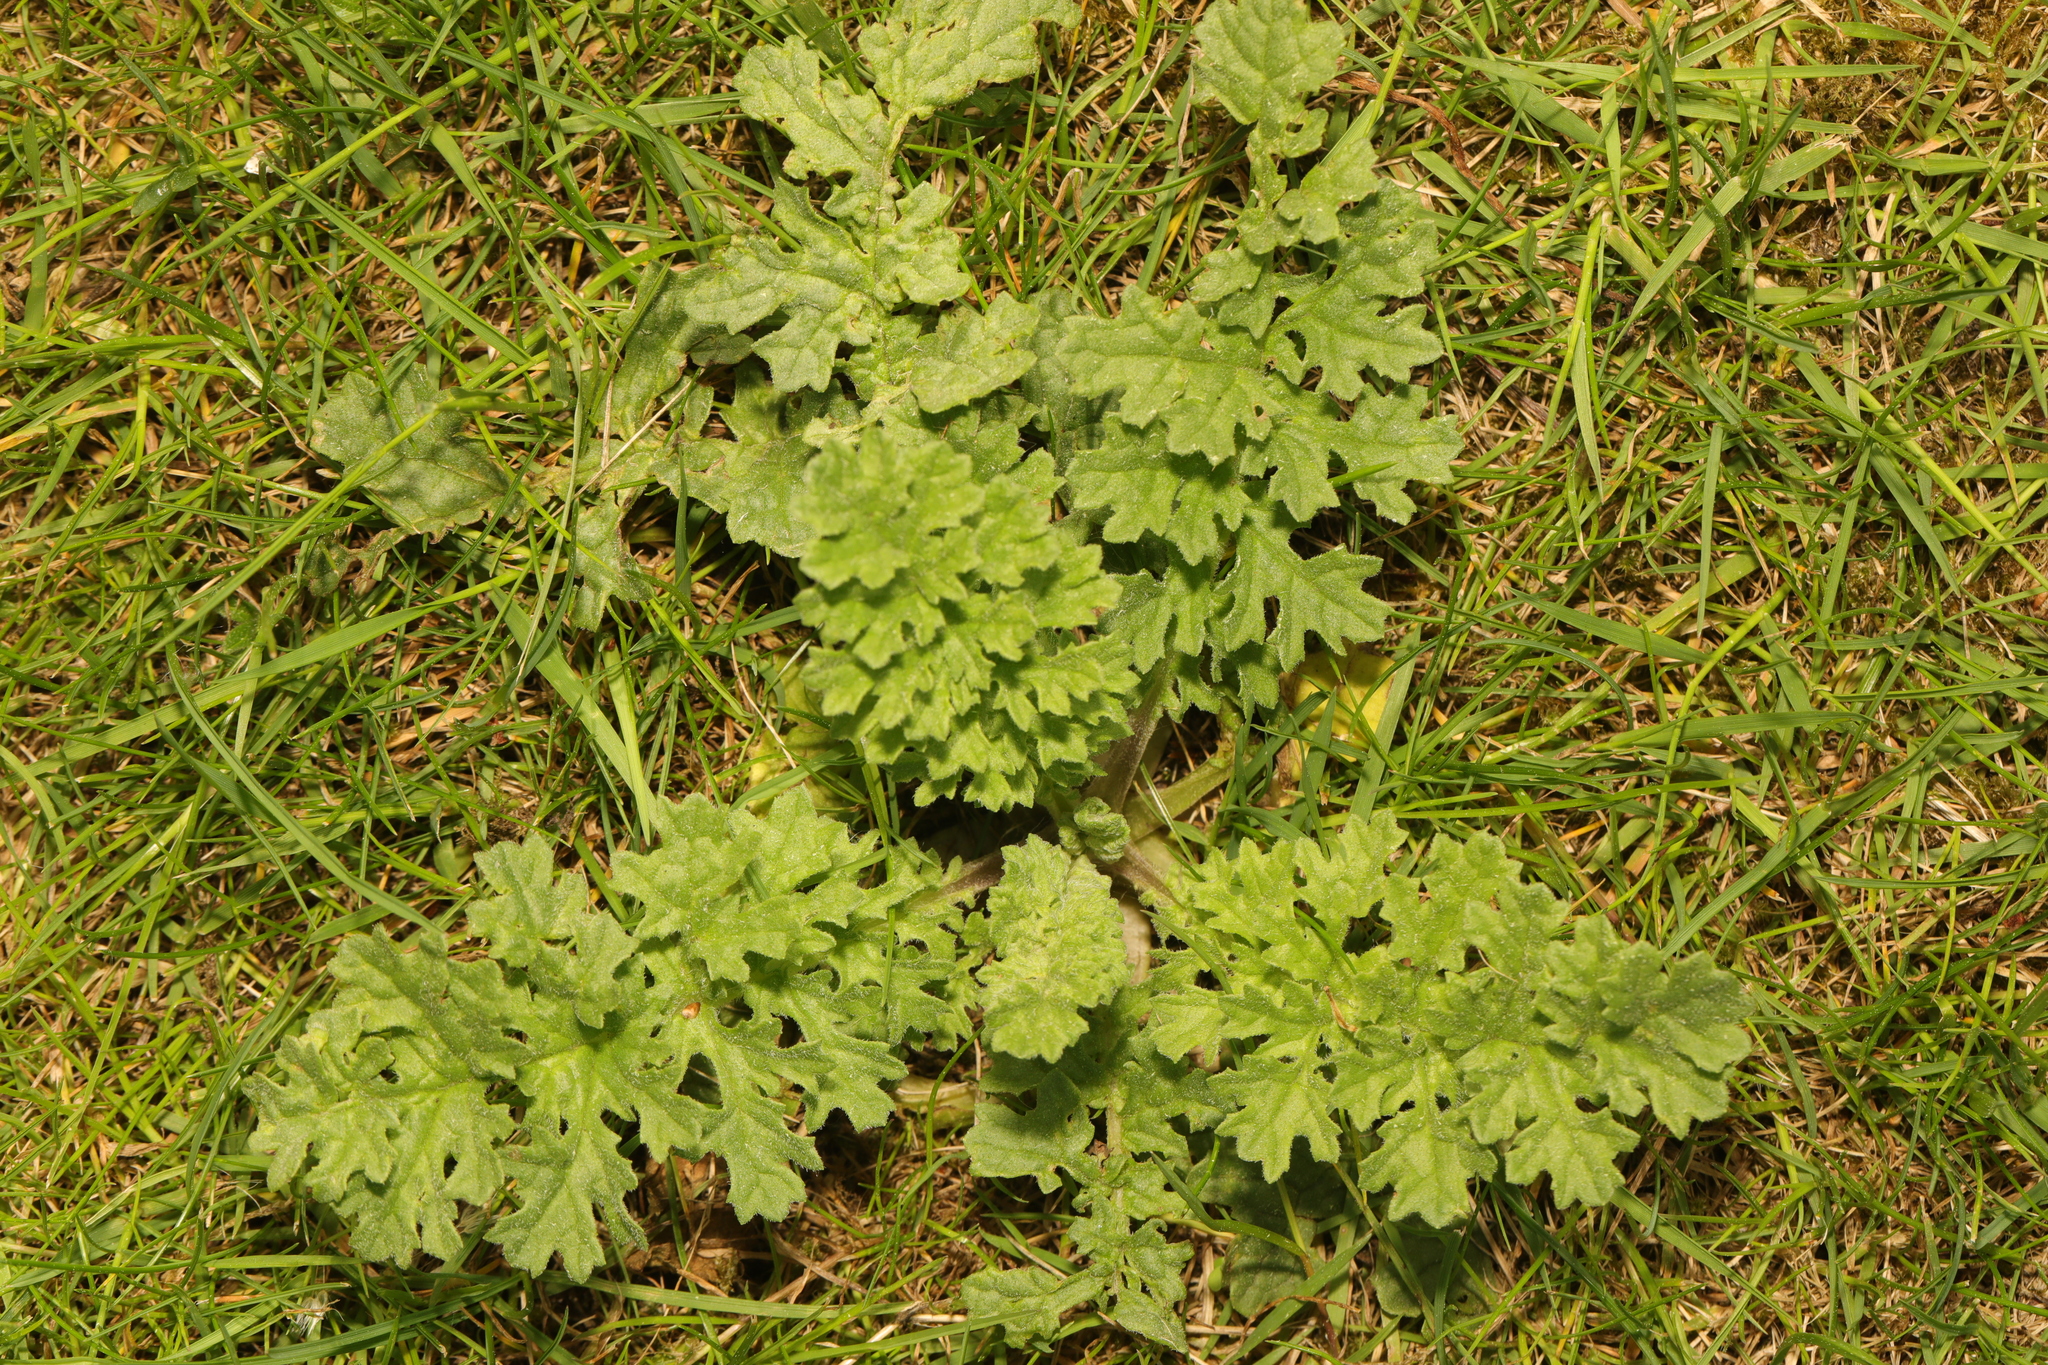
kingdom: Plantae
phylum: Tracheophyta
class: Magnoliopsida
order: Asterales
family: Asteraceae
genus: Jacobaea
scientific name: Jacobaea vulgaris
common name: Stinking willie
